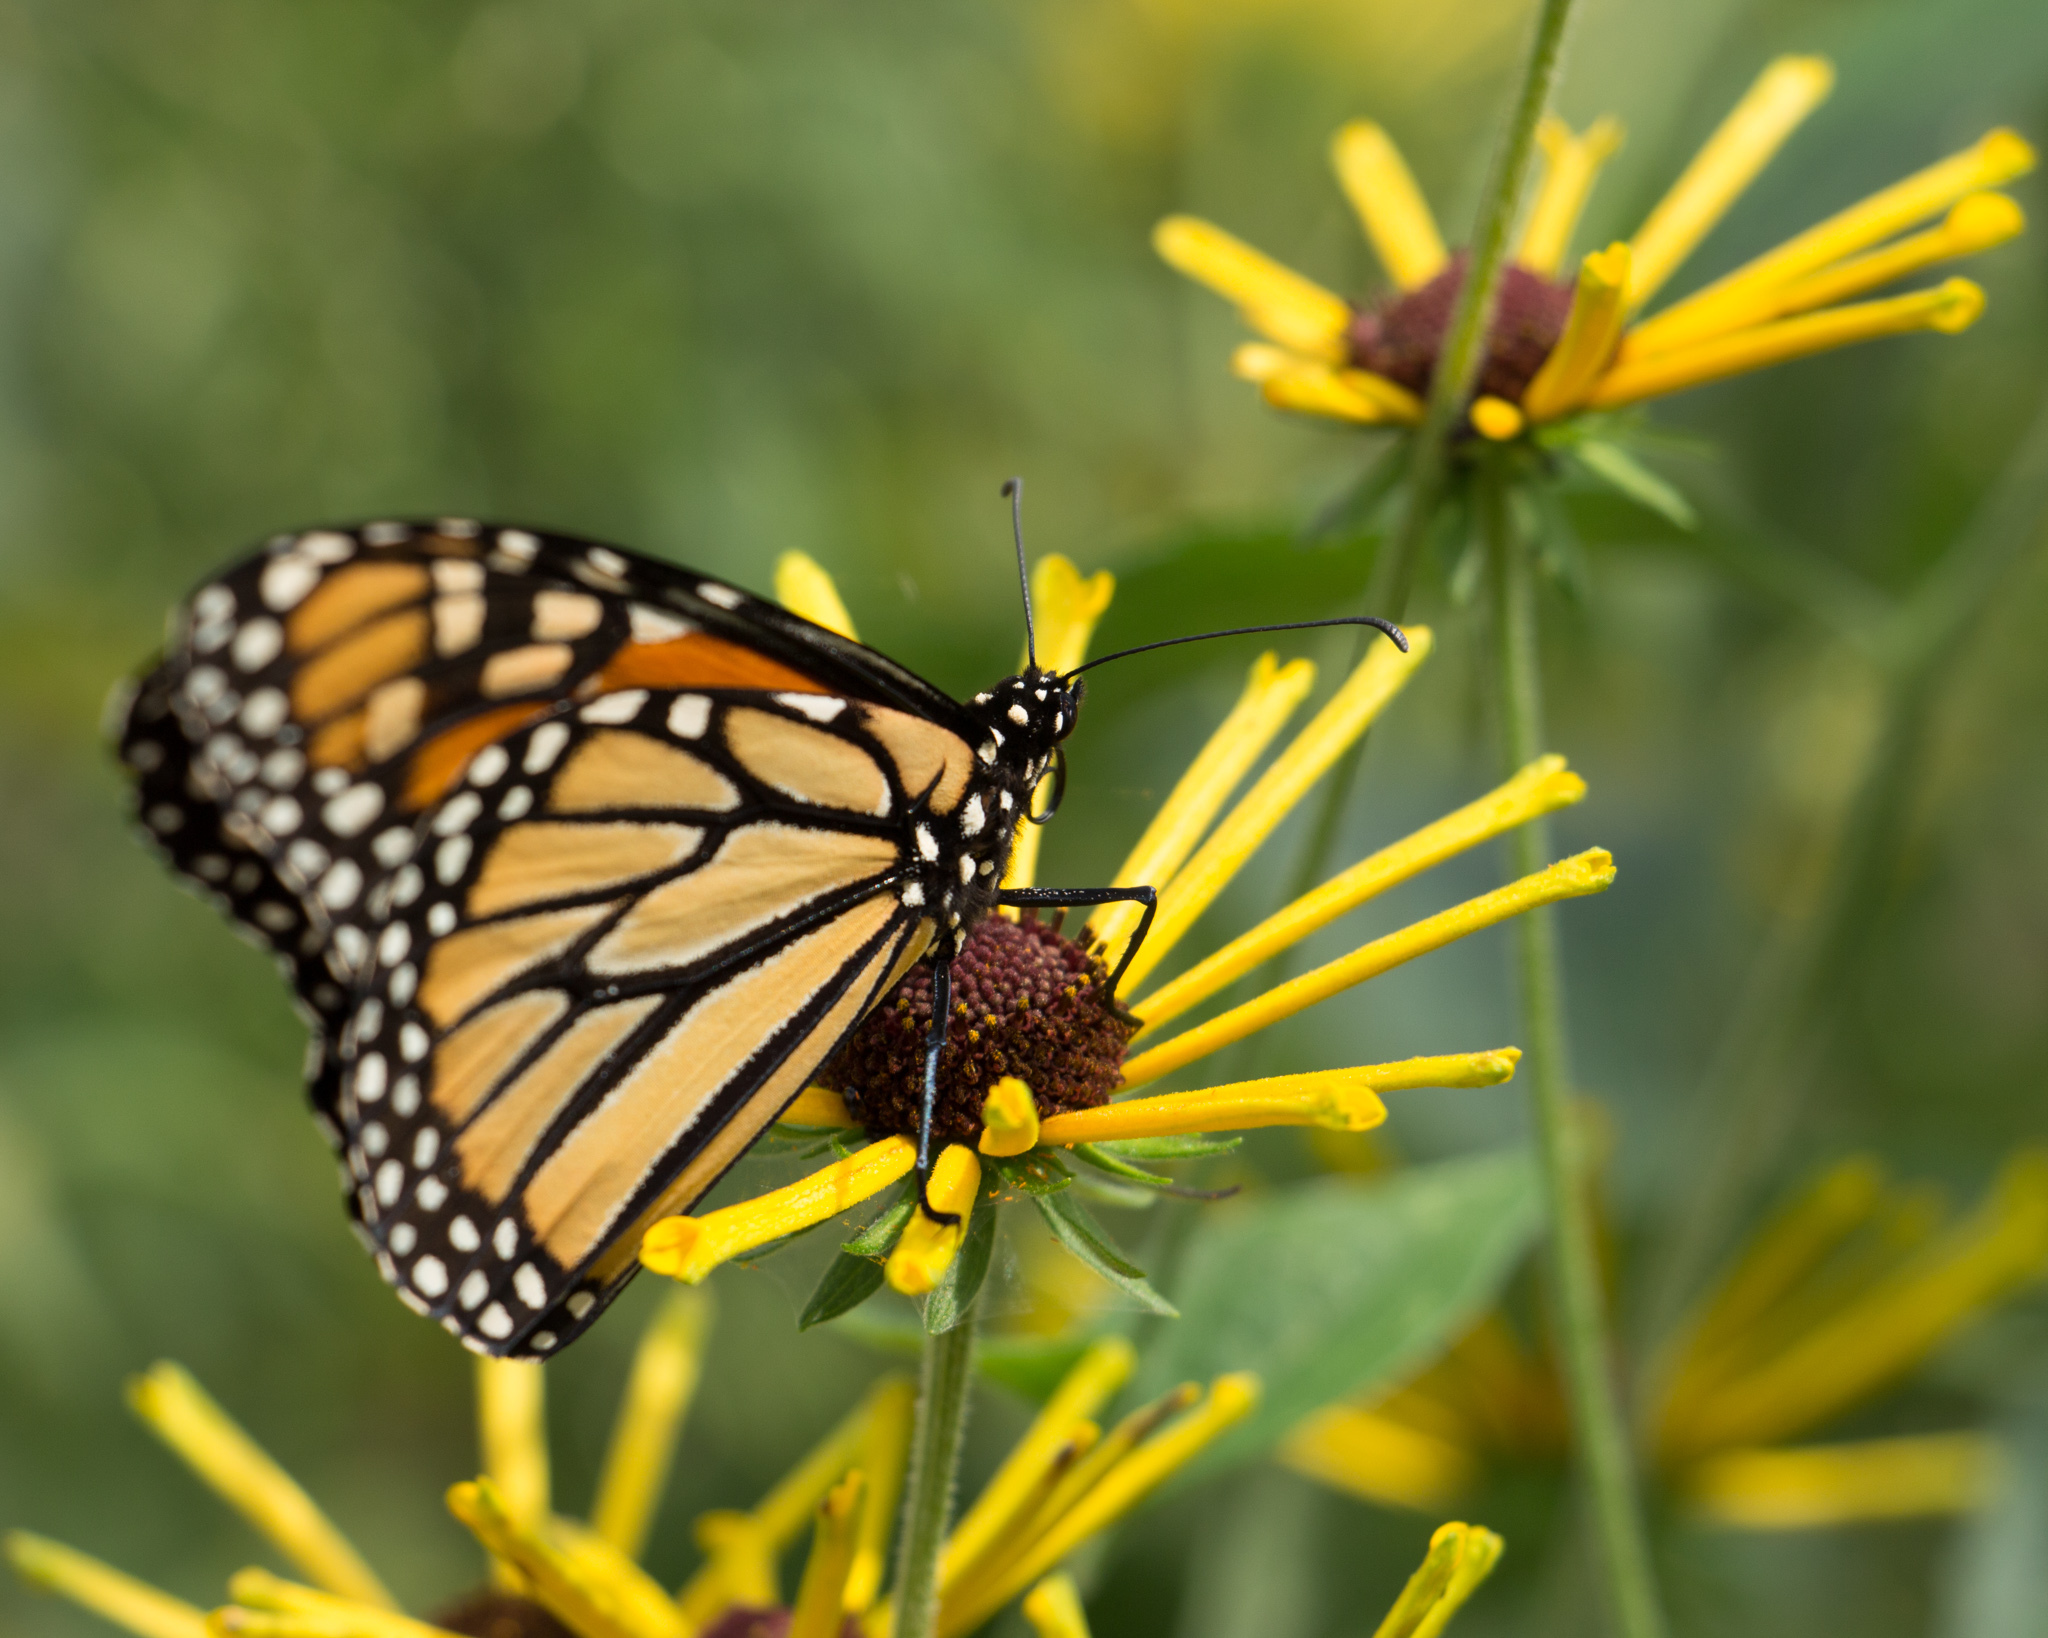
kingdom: Animalia
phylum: Arthropoda
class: Insecta
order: Lepidoptera
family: Nymphalidae
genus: Danaus
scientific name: Danaus plexippus
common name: Monarch
